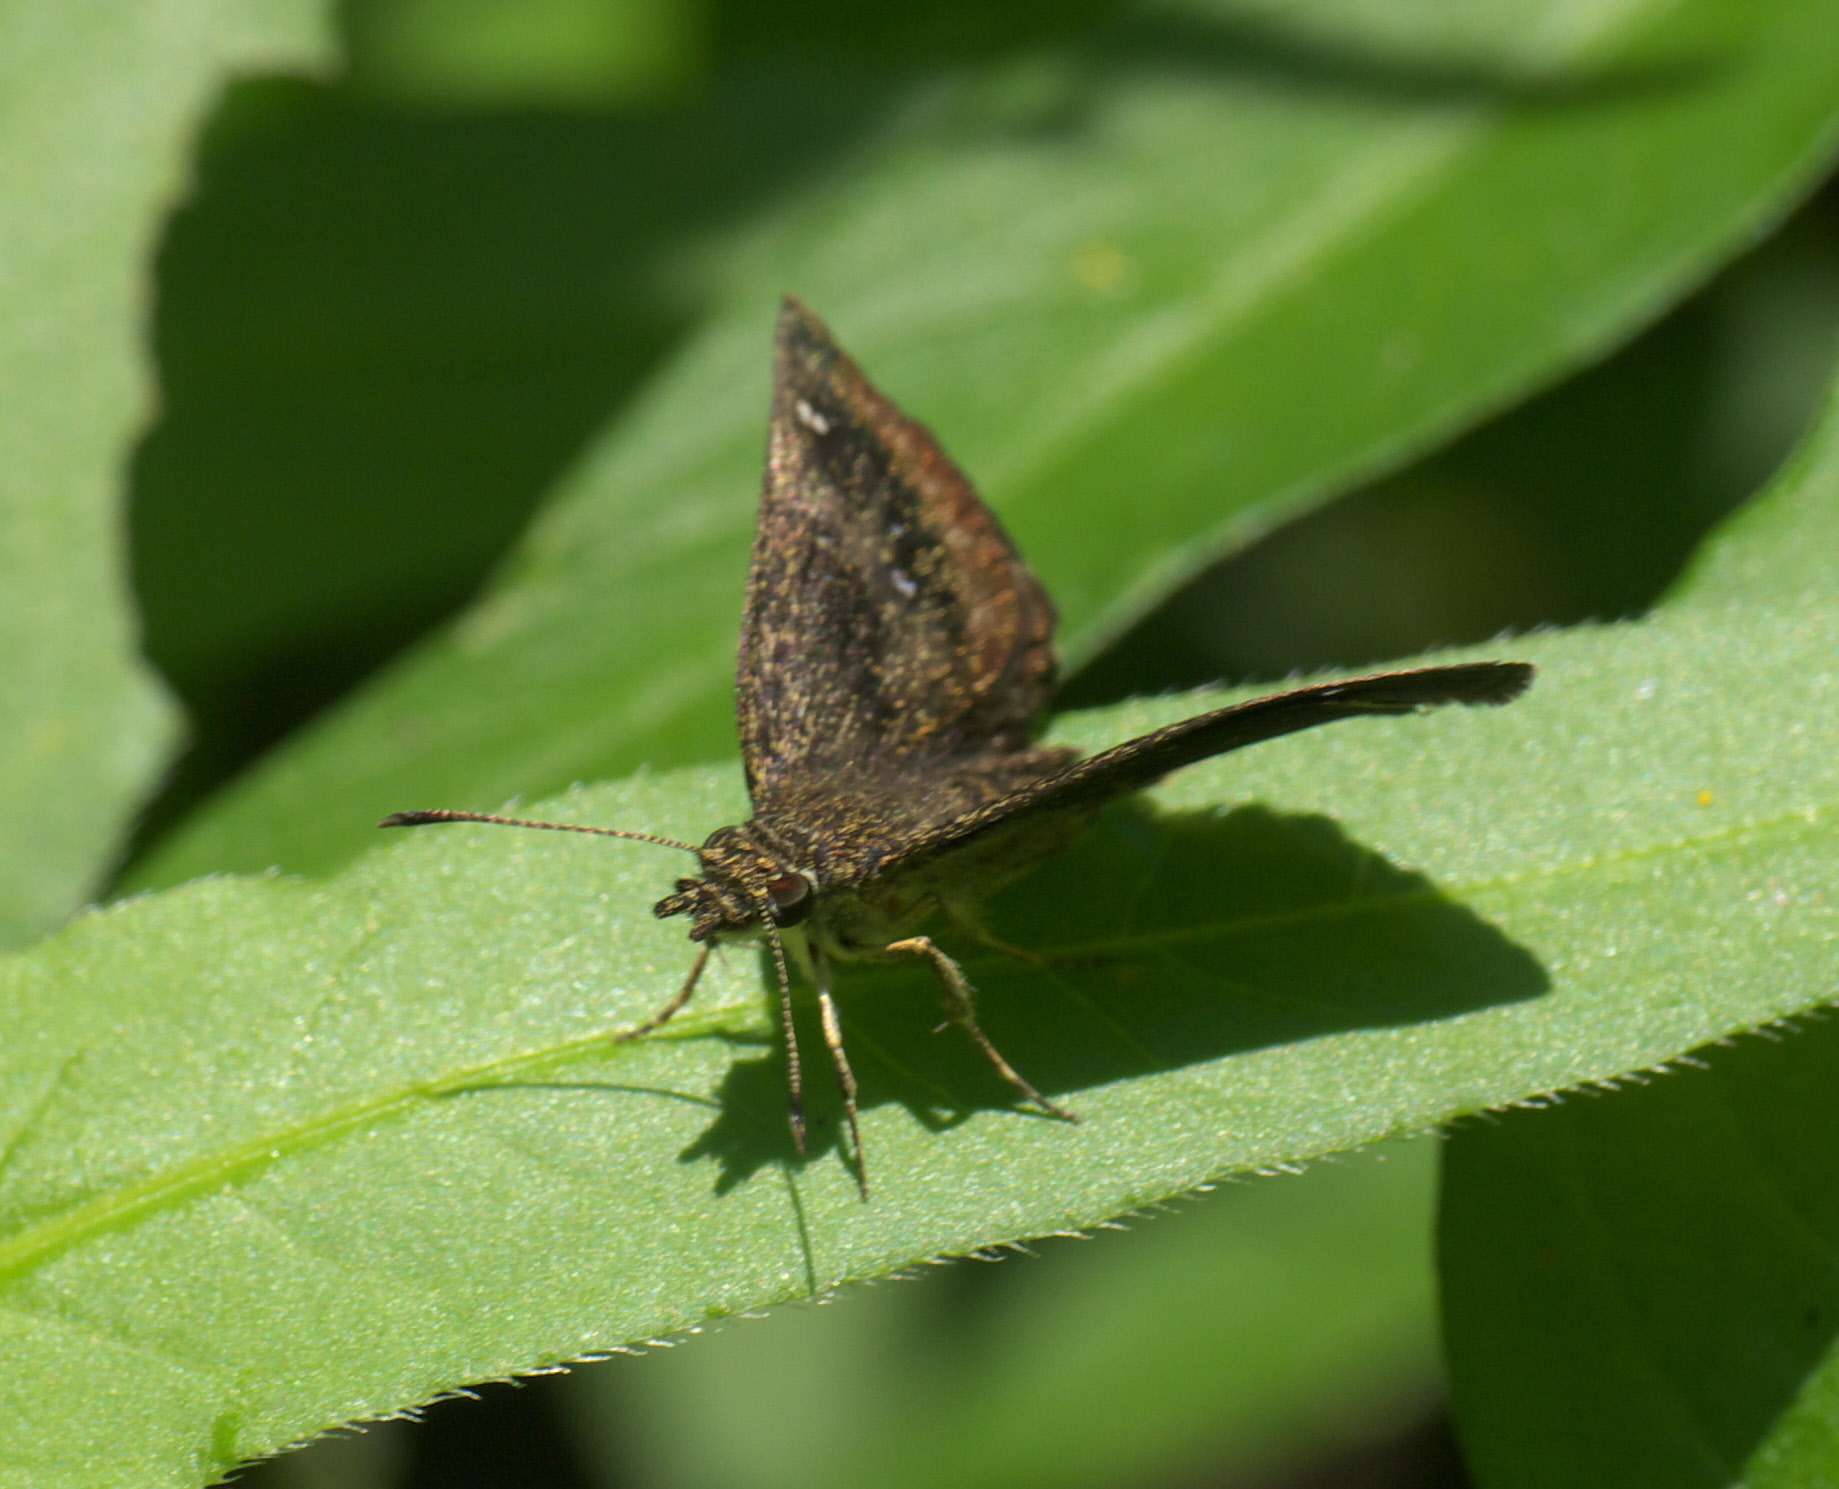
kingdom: Animalia
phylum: Arthropoda
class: Insecta
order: Lepidoptera
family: Hesperiidae
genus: Staphylus
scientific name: Staphylus mazans
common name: Mazans scallopwing
